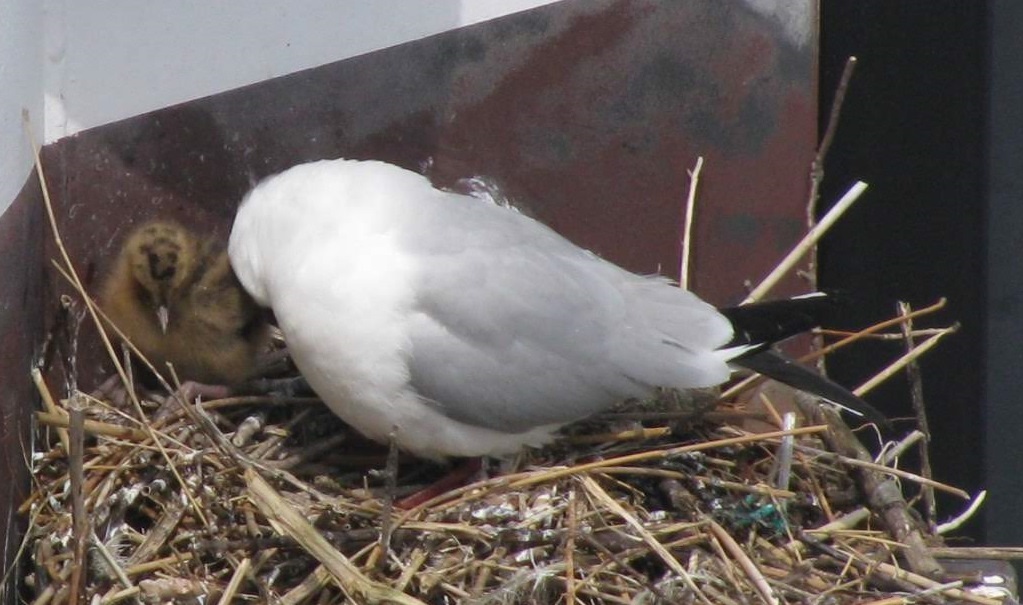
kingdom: Animalia
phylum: Chordata
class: Aves
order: Charadriiformes
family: Laridae
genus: Chroicocephalus
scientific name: Chroicocephalus ridibundus
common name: Black-headed gull
